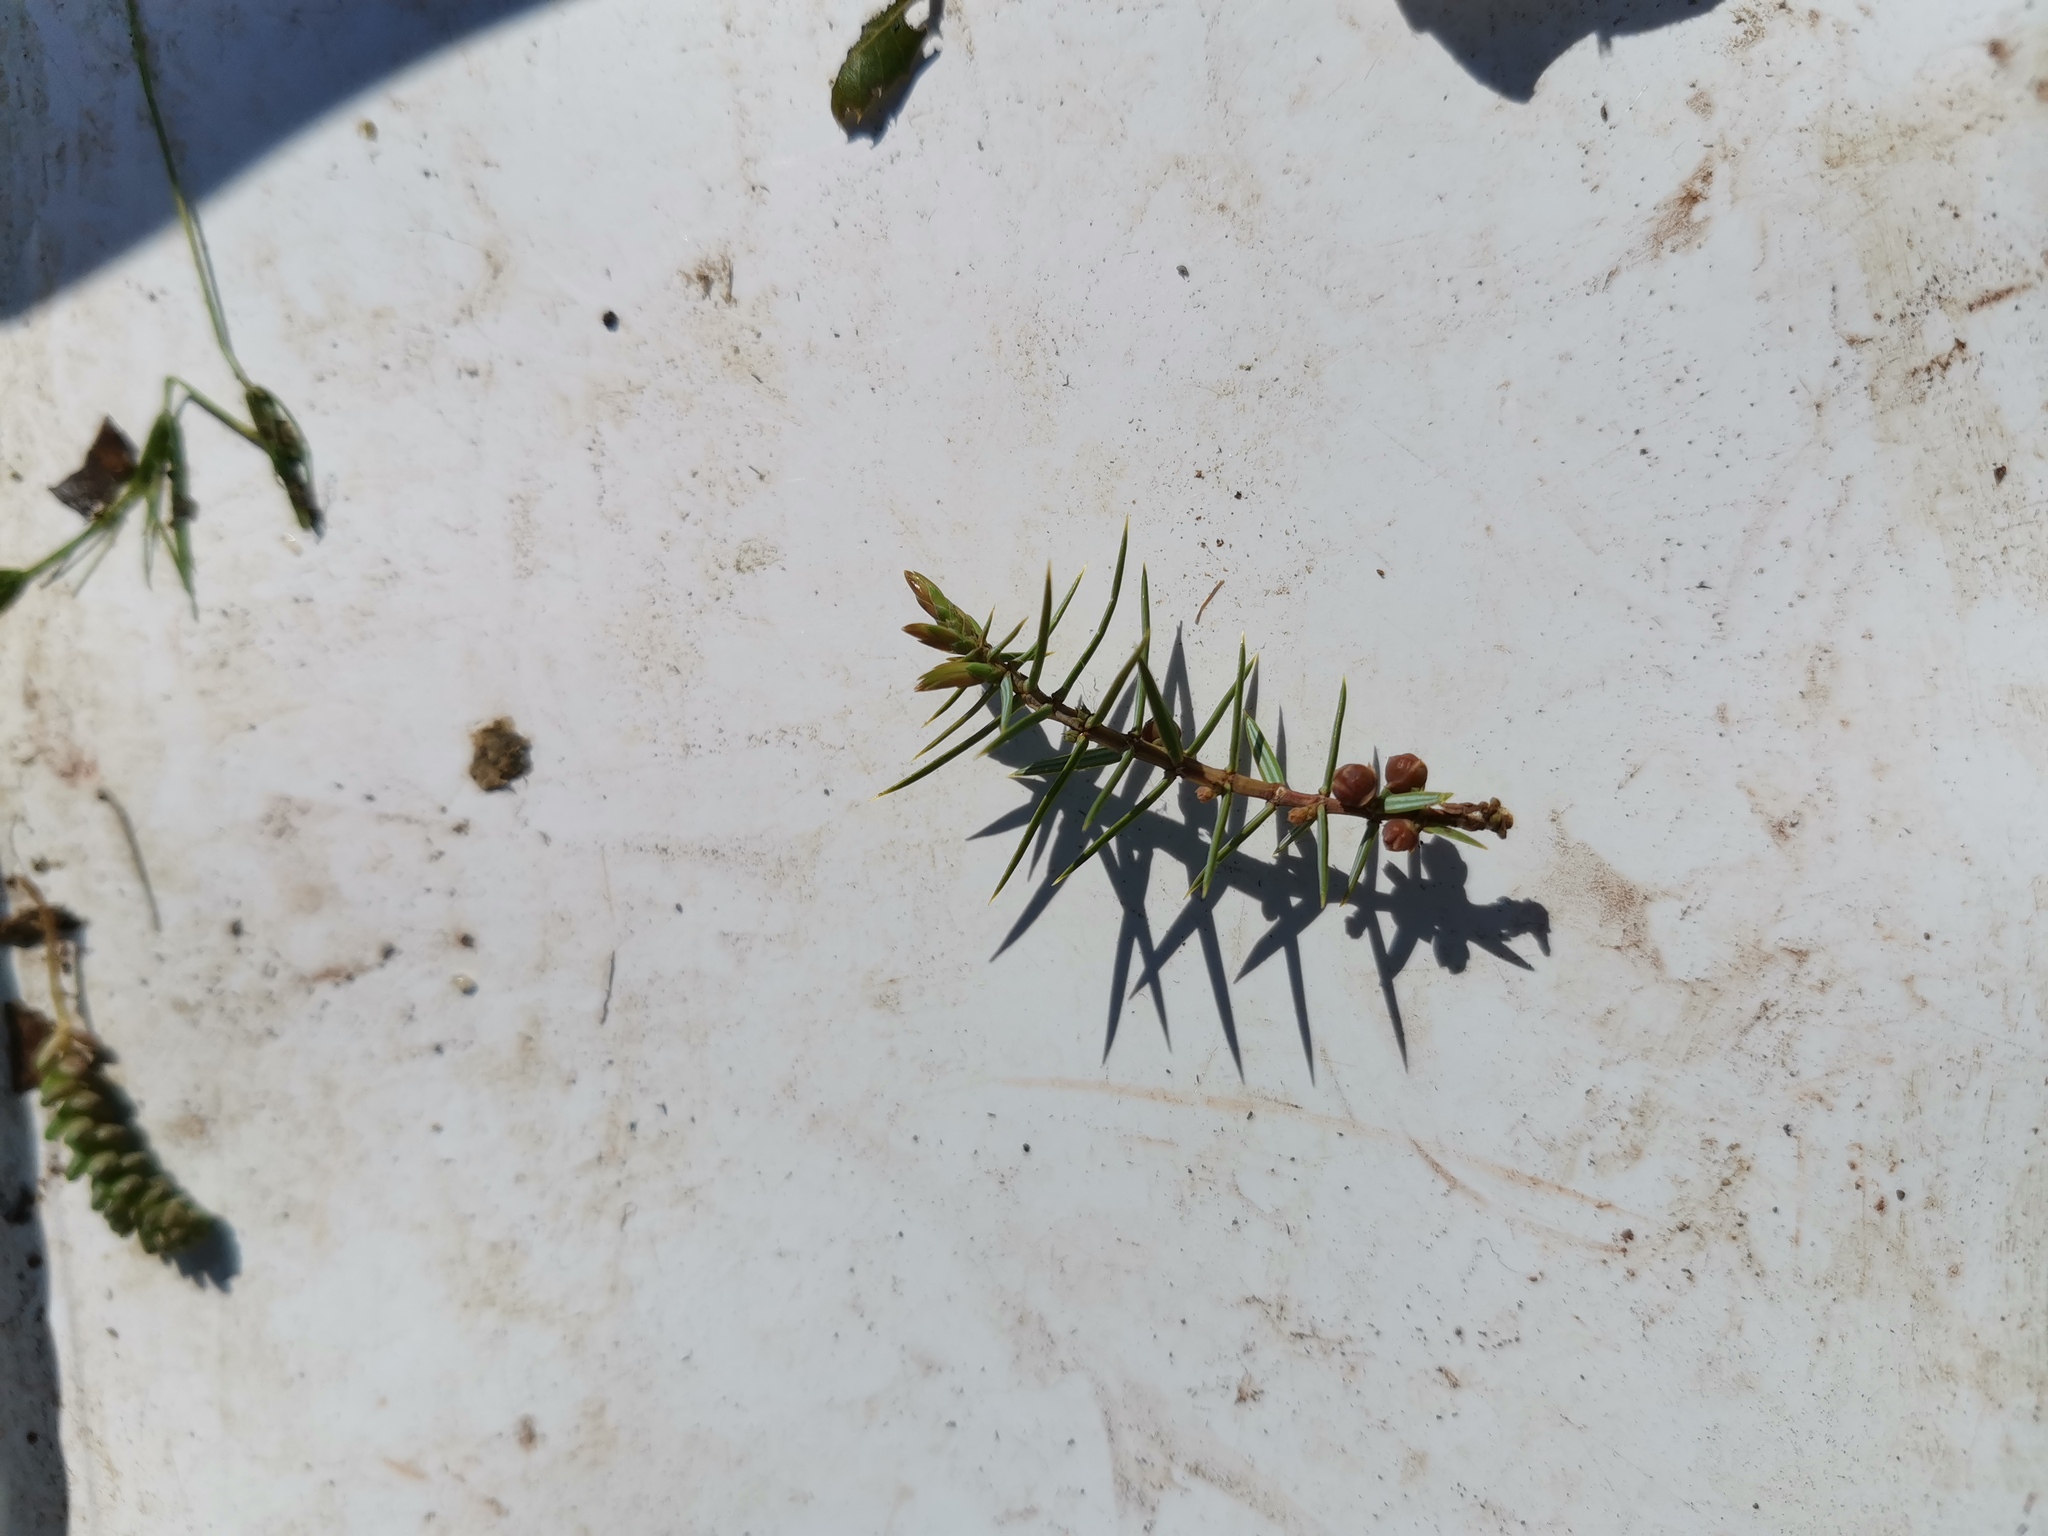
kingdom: Plantae
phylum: Tracheophyta
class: Pinopsida
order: Pinales
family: Cupressaceae
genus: Juniperus
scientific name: Juniperus oxycedrus
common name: Prickly juniper
